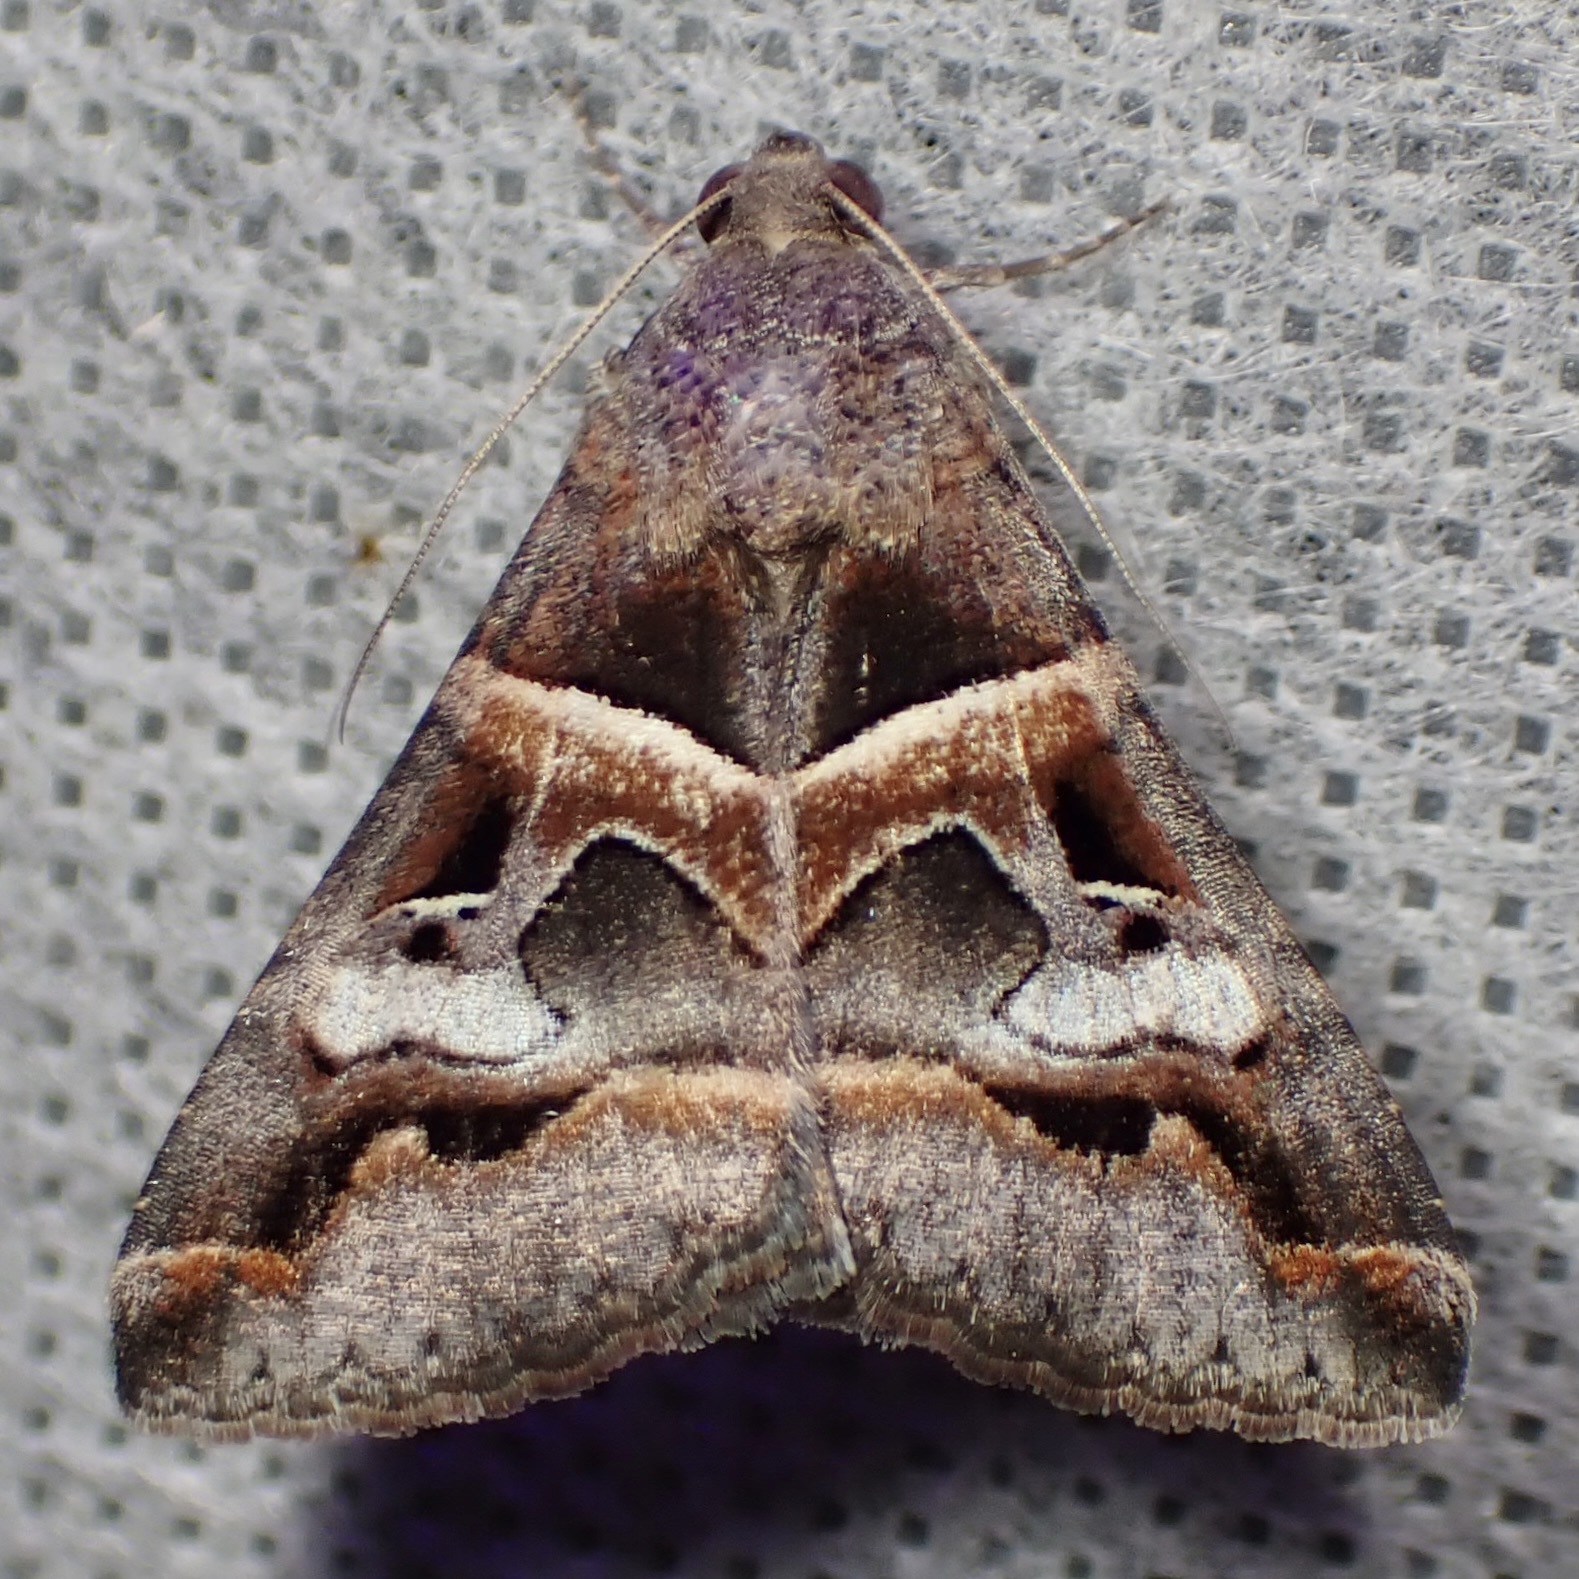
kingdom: Animalia
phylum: Arthropoda
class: Insecta
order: Lepidoptera
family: Erebidae
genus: Melipotis
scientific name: Melipotis perpendicularis
